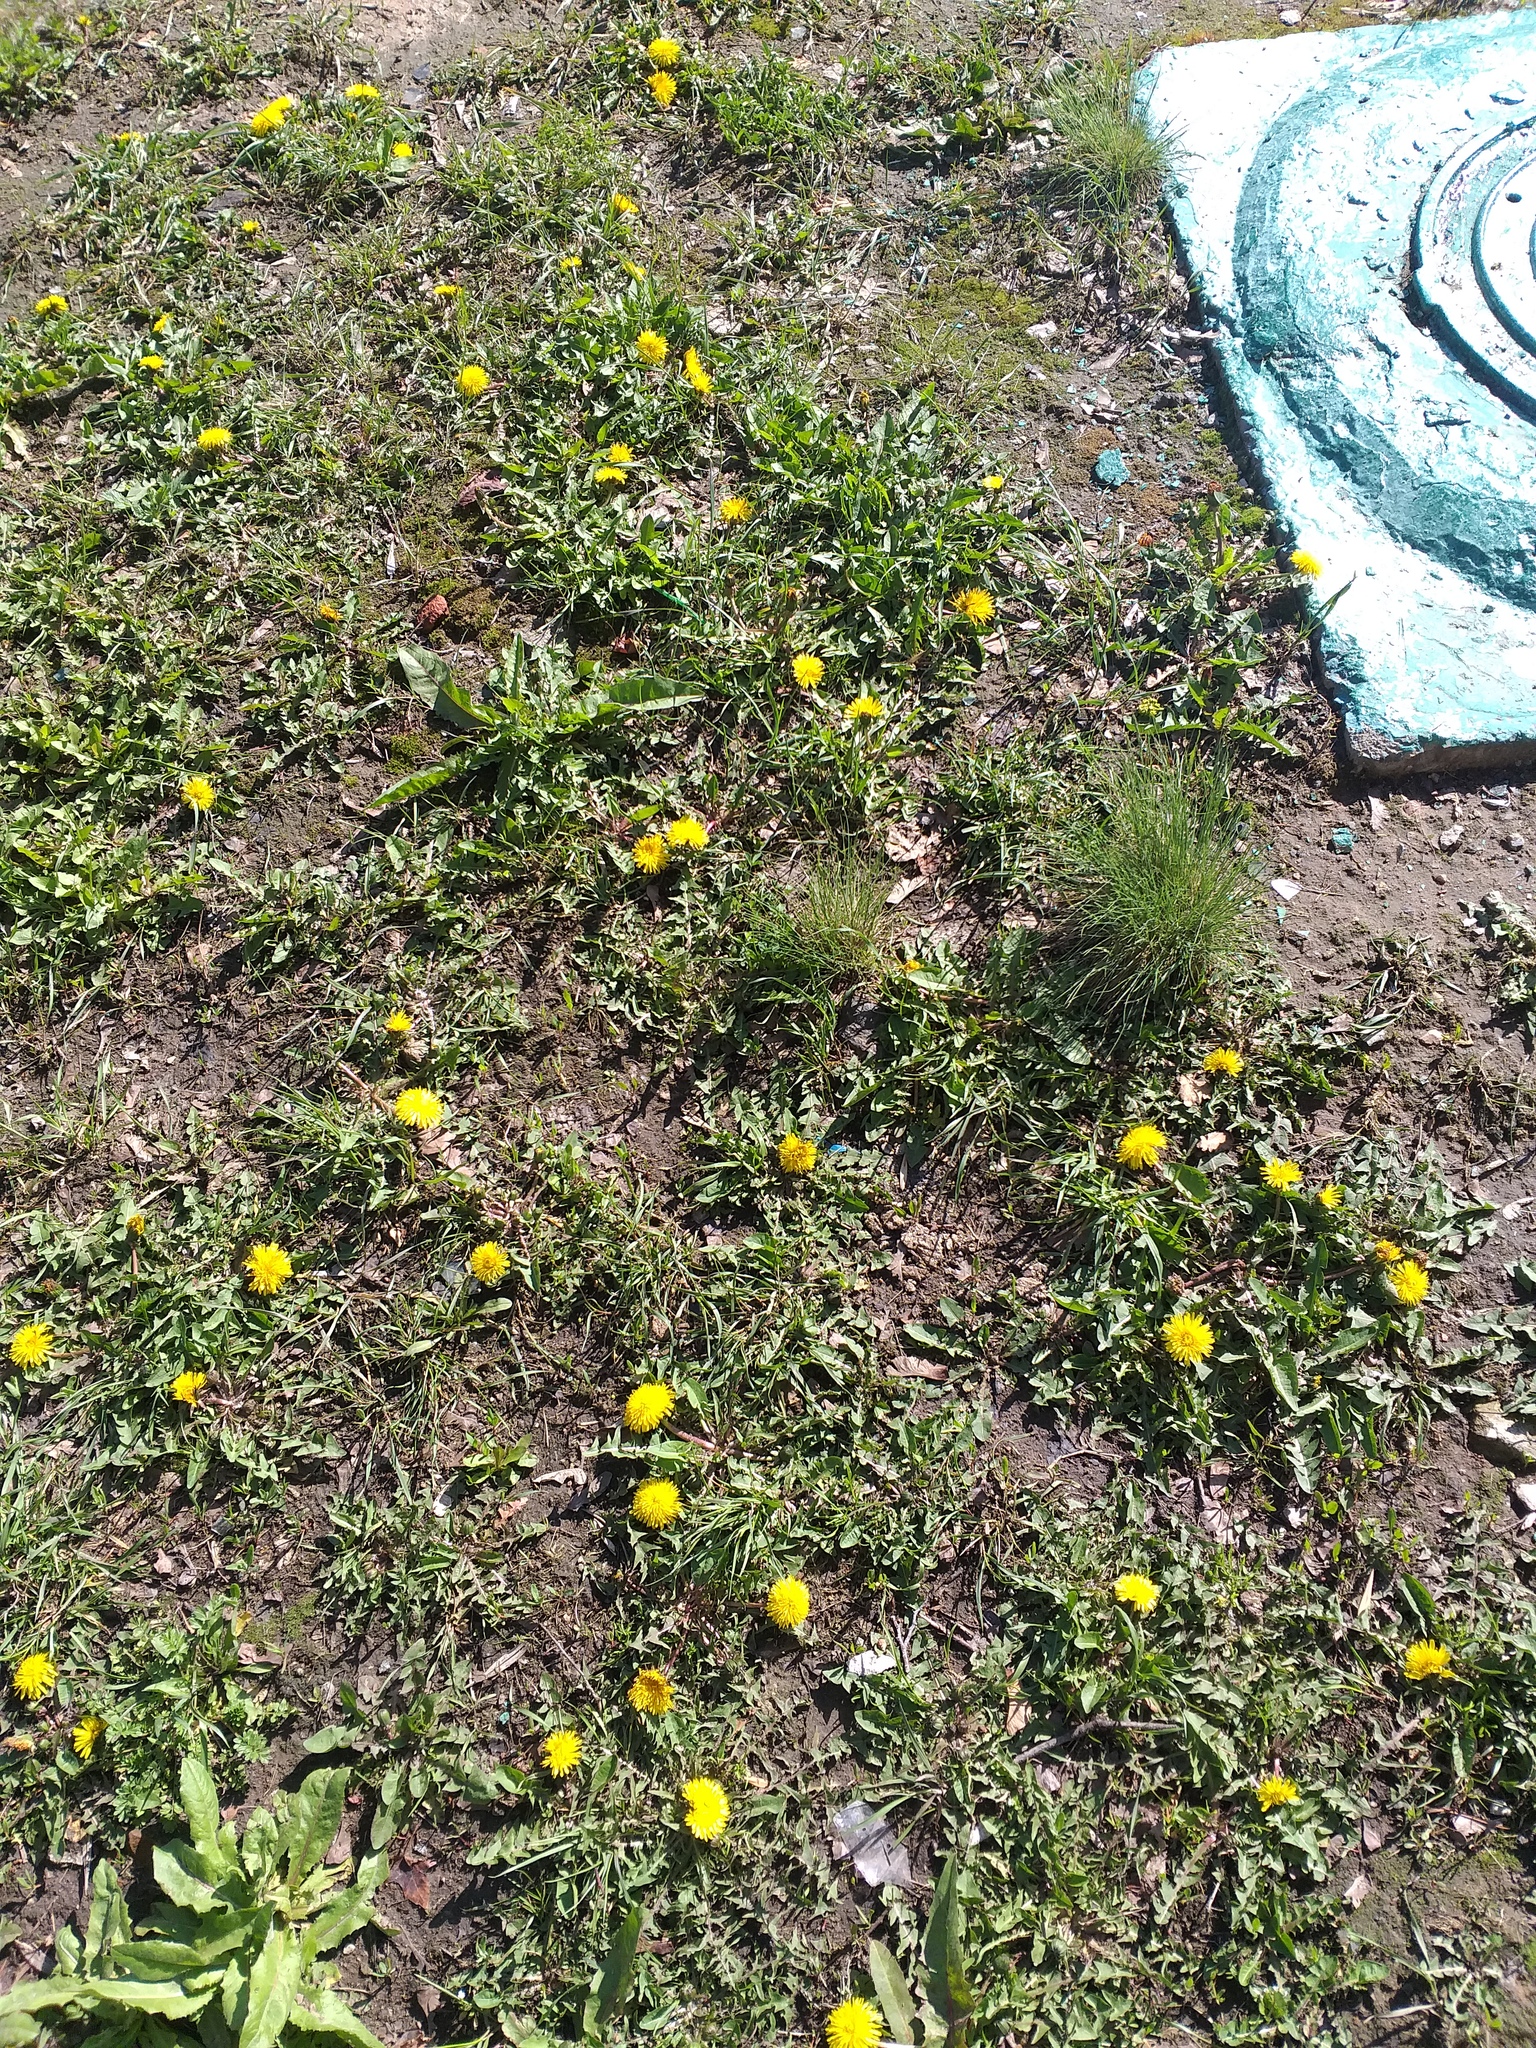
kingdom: Plantae
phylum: Tracheophyta
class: Magnoliopsida
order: Asterales
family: Asteraceae
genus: Taraxacum
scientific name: Taraxacum officinale
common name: Common dandelion
